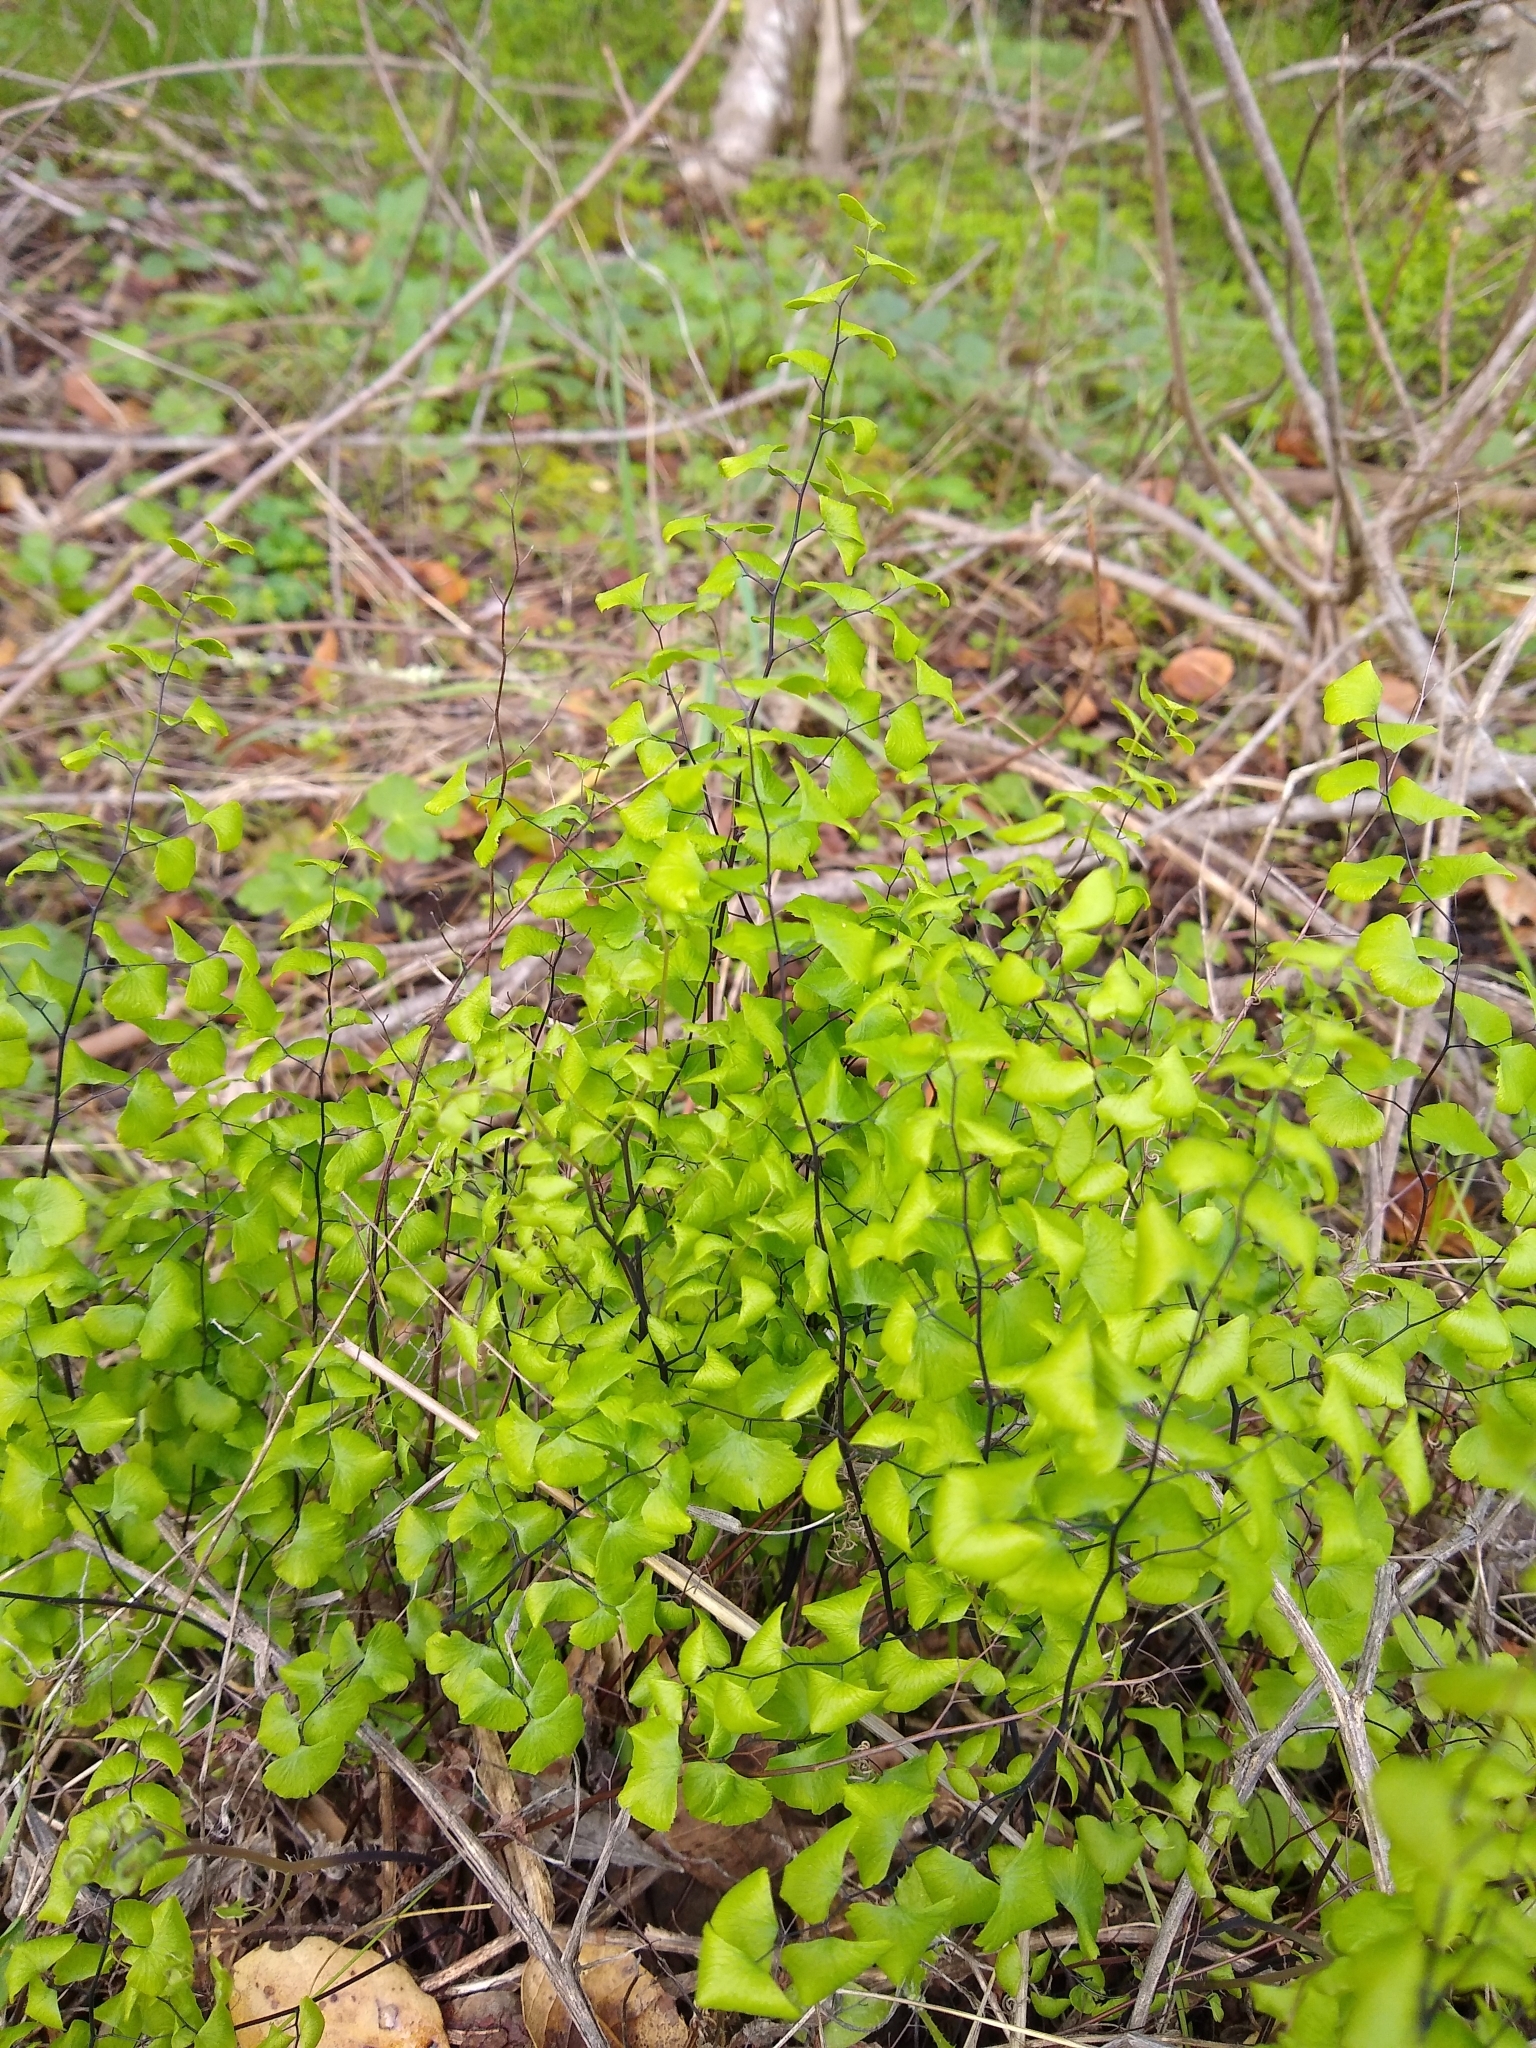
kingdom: Plantae
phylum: Tracheophyta
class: Polypodiopsida
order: Polypodiales
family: Pteridaceae
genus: Adiantum
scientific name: Adiantum jordanii
